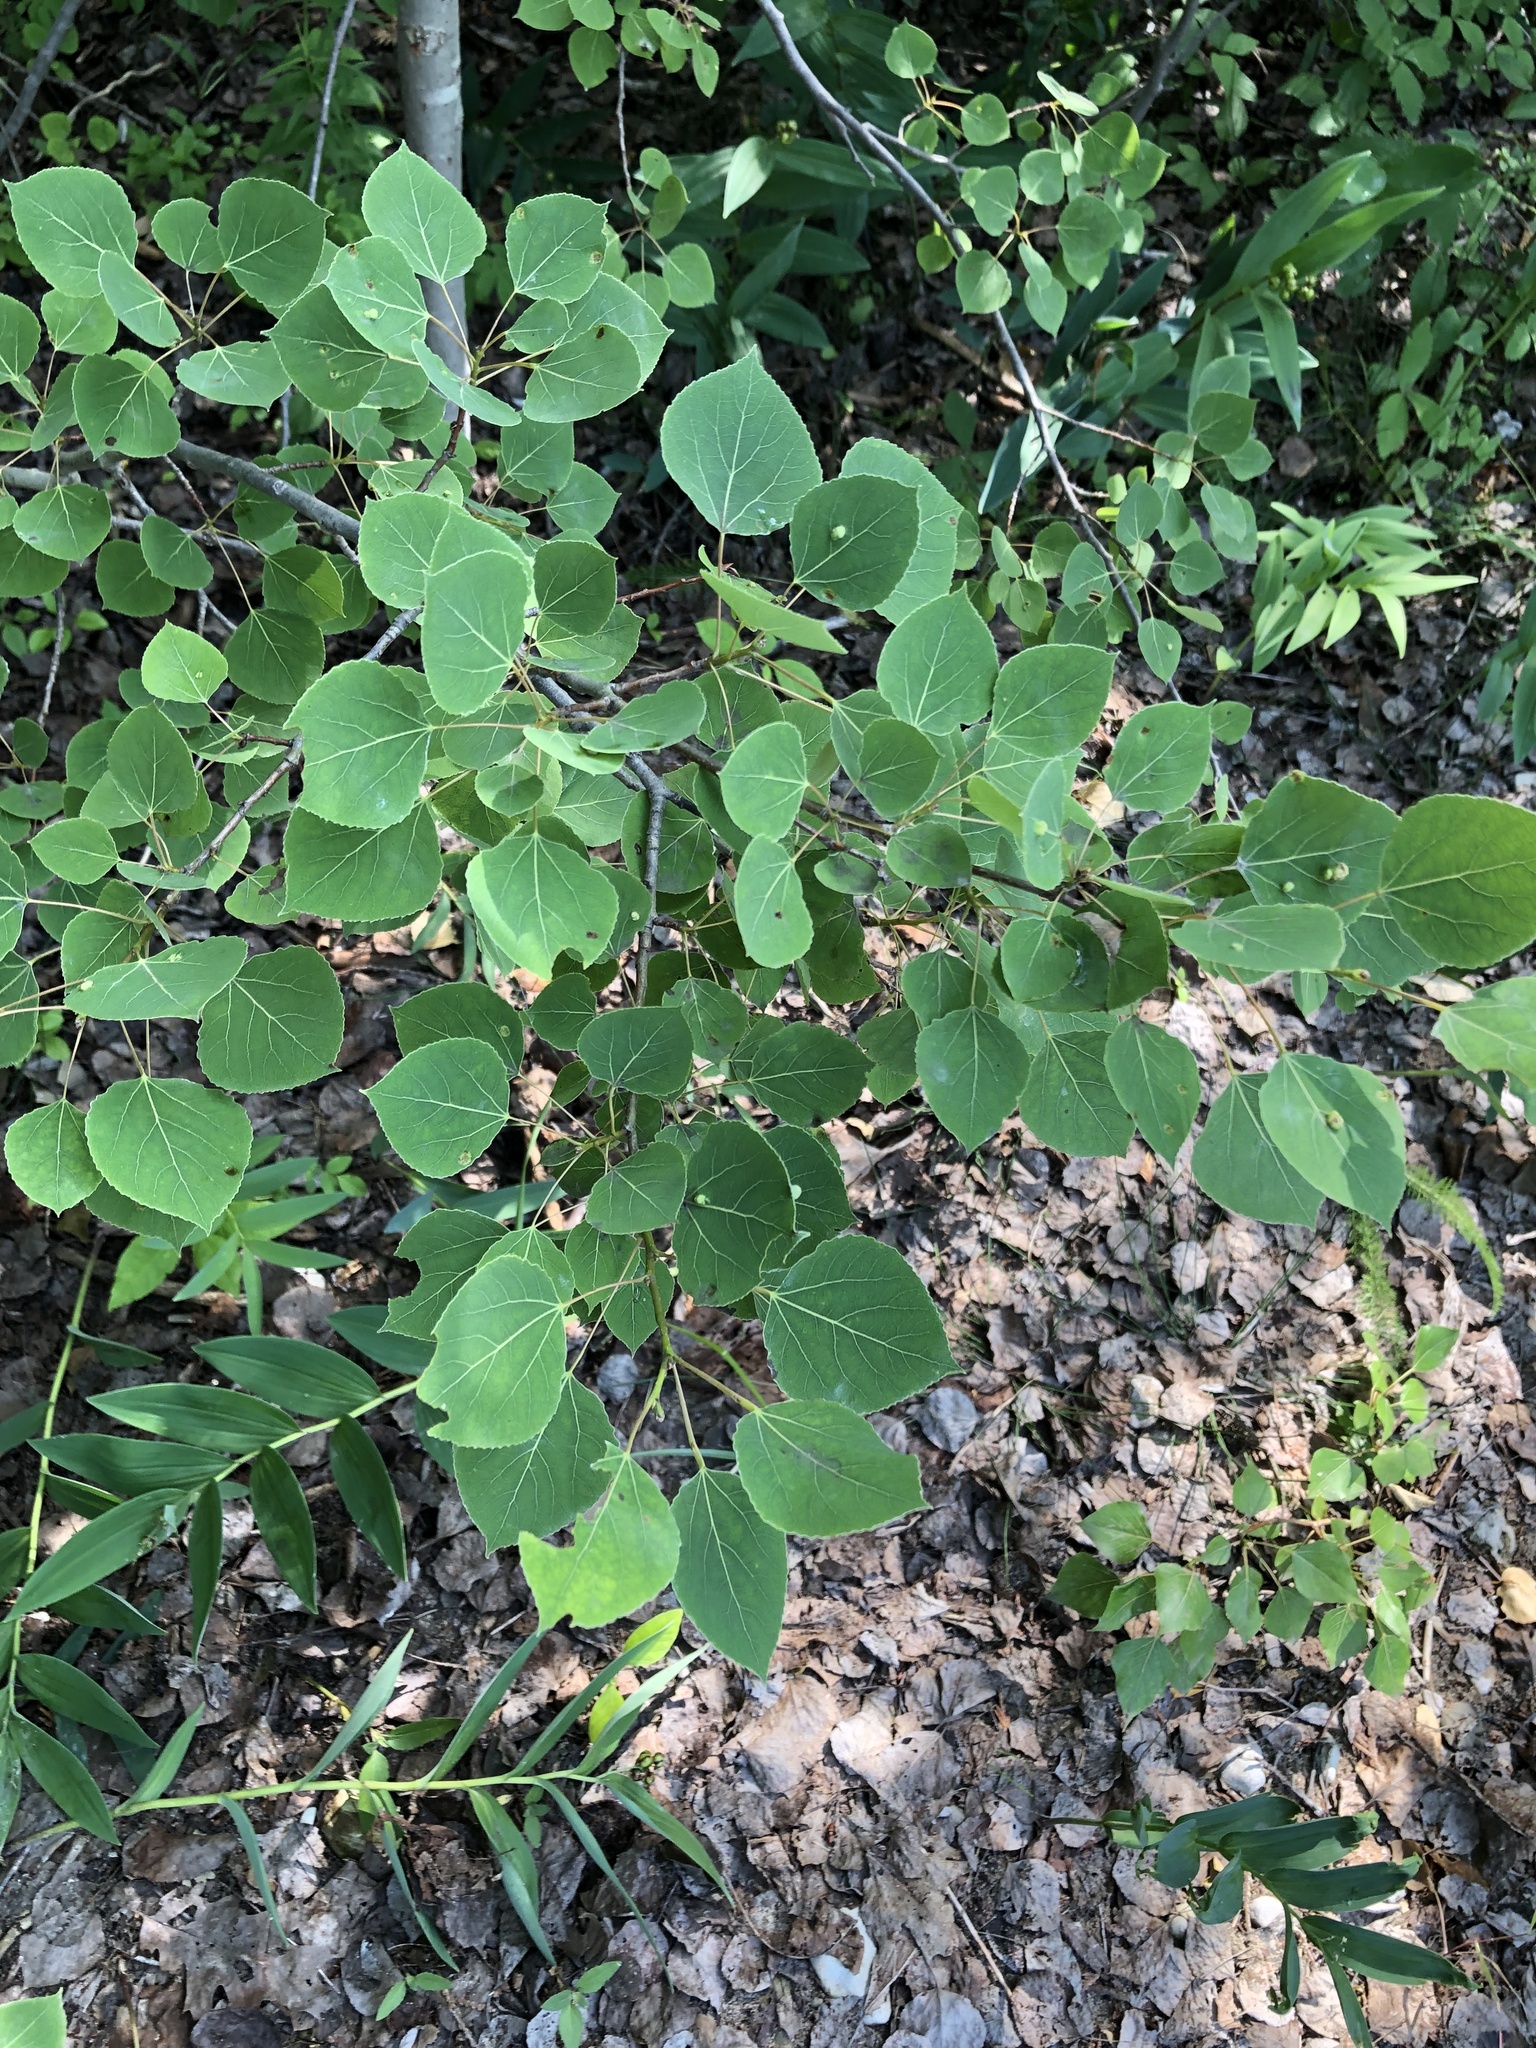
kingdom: Plantae
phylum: Tracheophyta
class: Magnoliopsida
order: Malpighiales
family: Salicaceae
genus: Populus
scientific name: Populus tremuloides
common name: Quaking aspen
